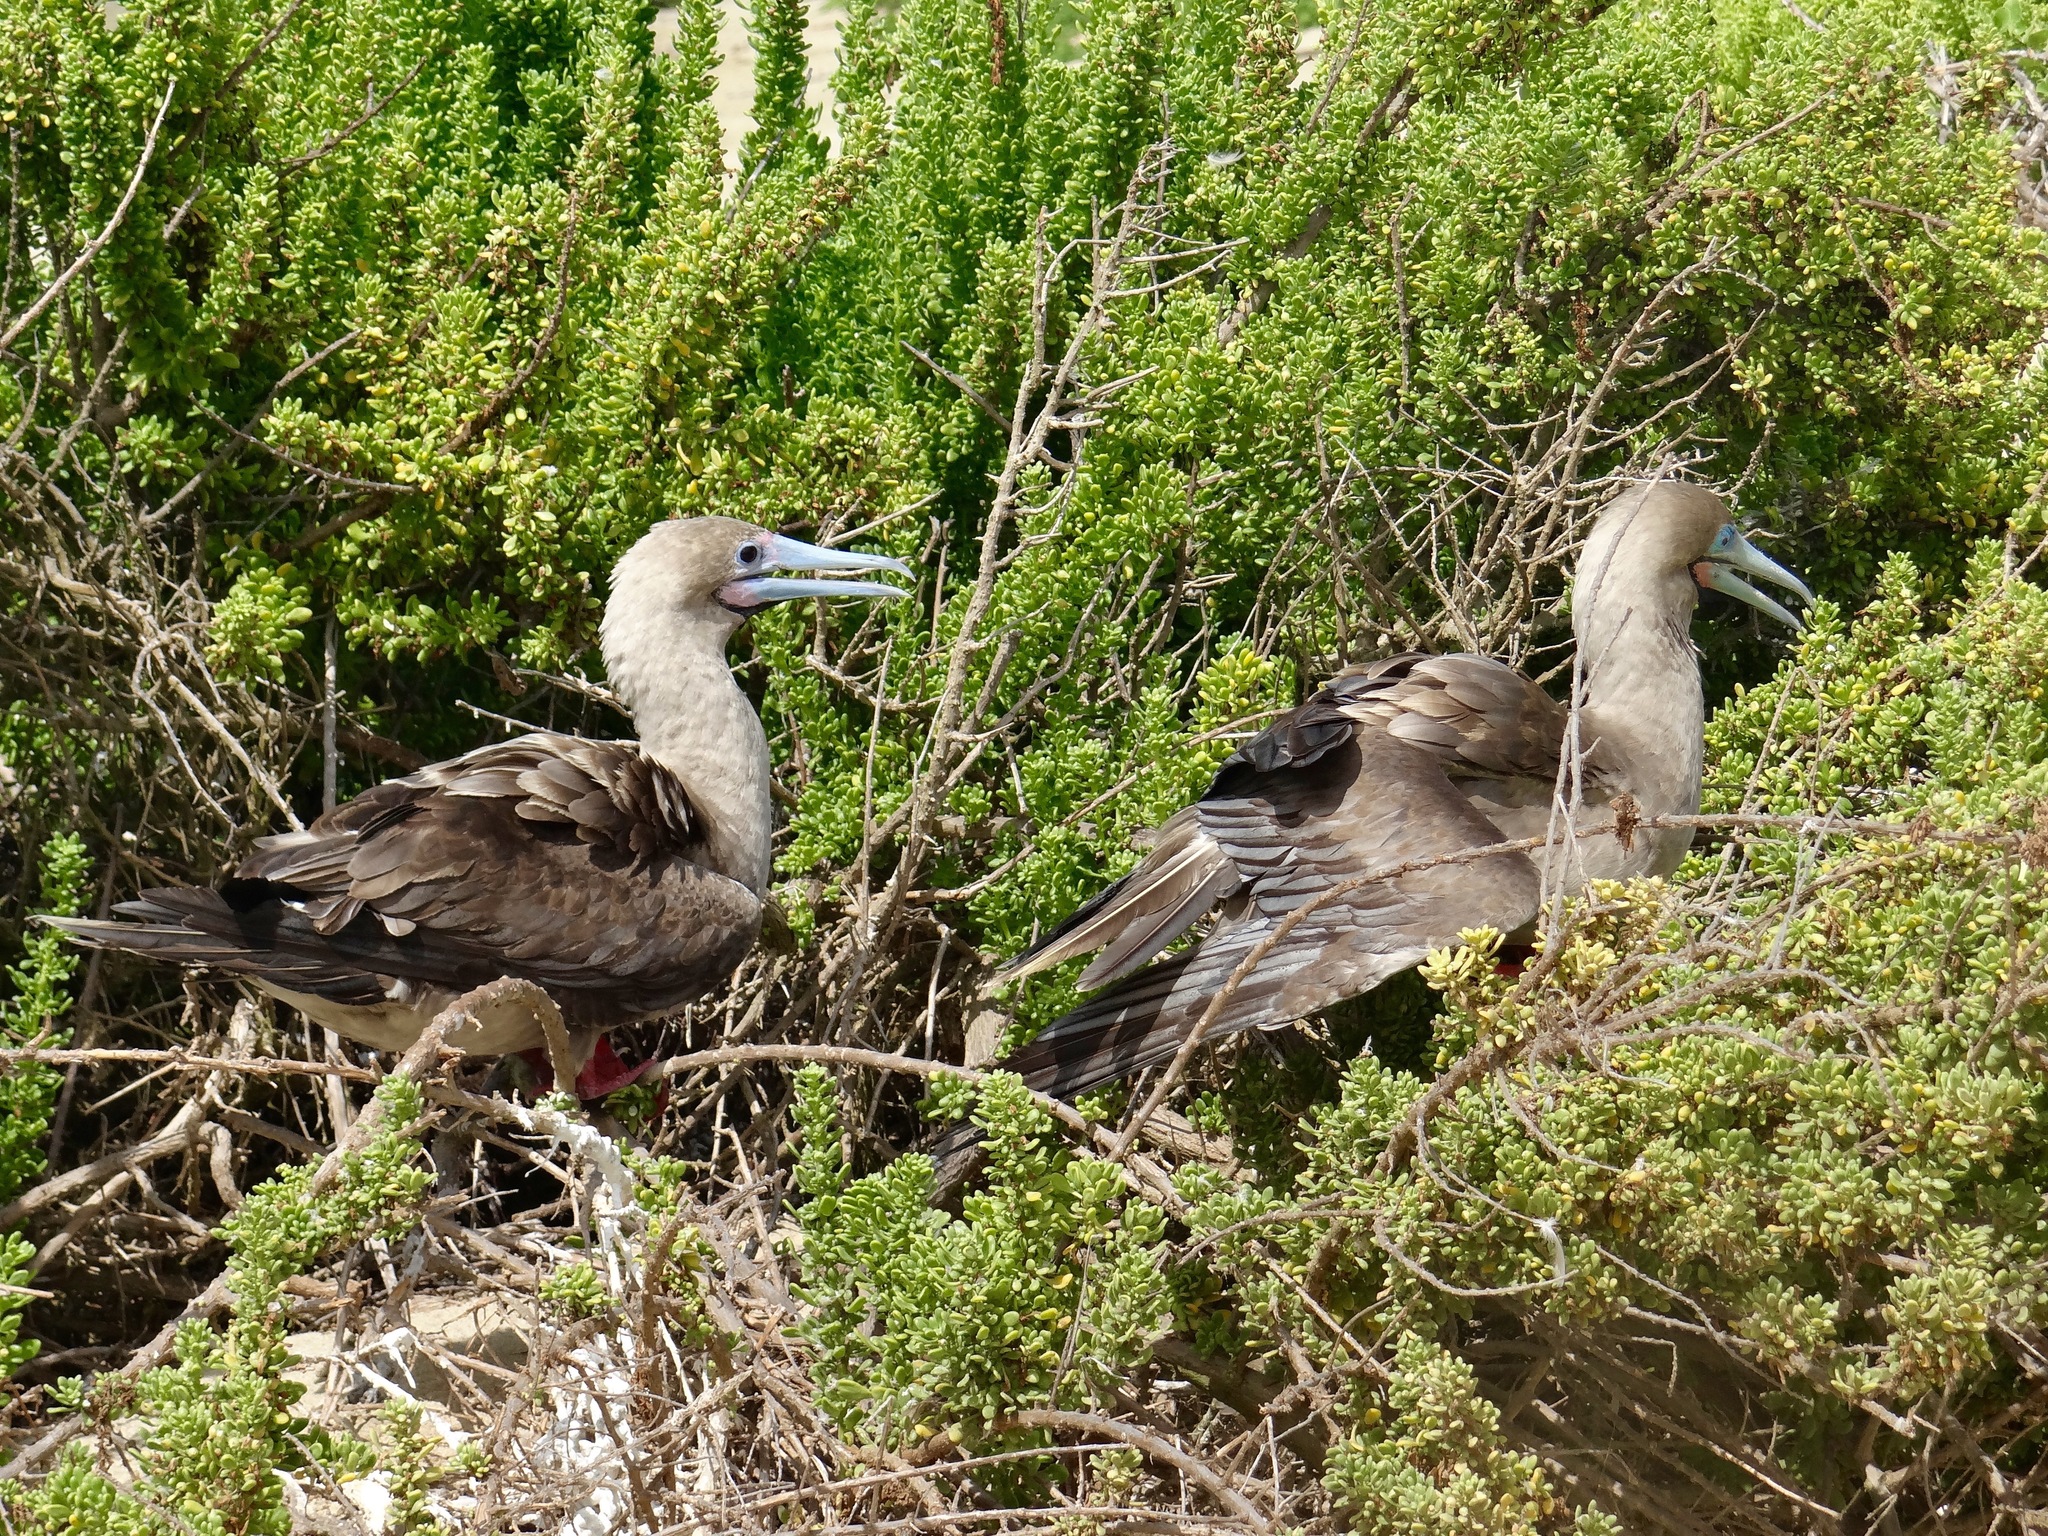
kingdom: Animalia
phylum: Chordata
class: Aves
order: Suliformes
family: Sulidae
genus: Sula
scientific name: Sula sula
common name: Red-footed booby
